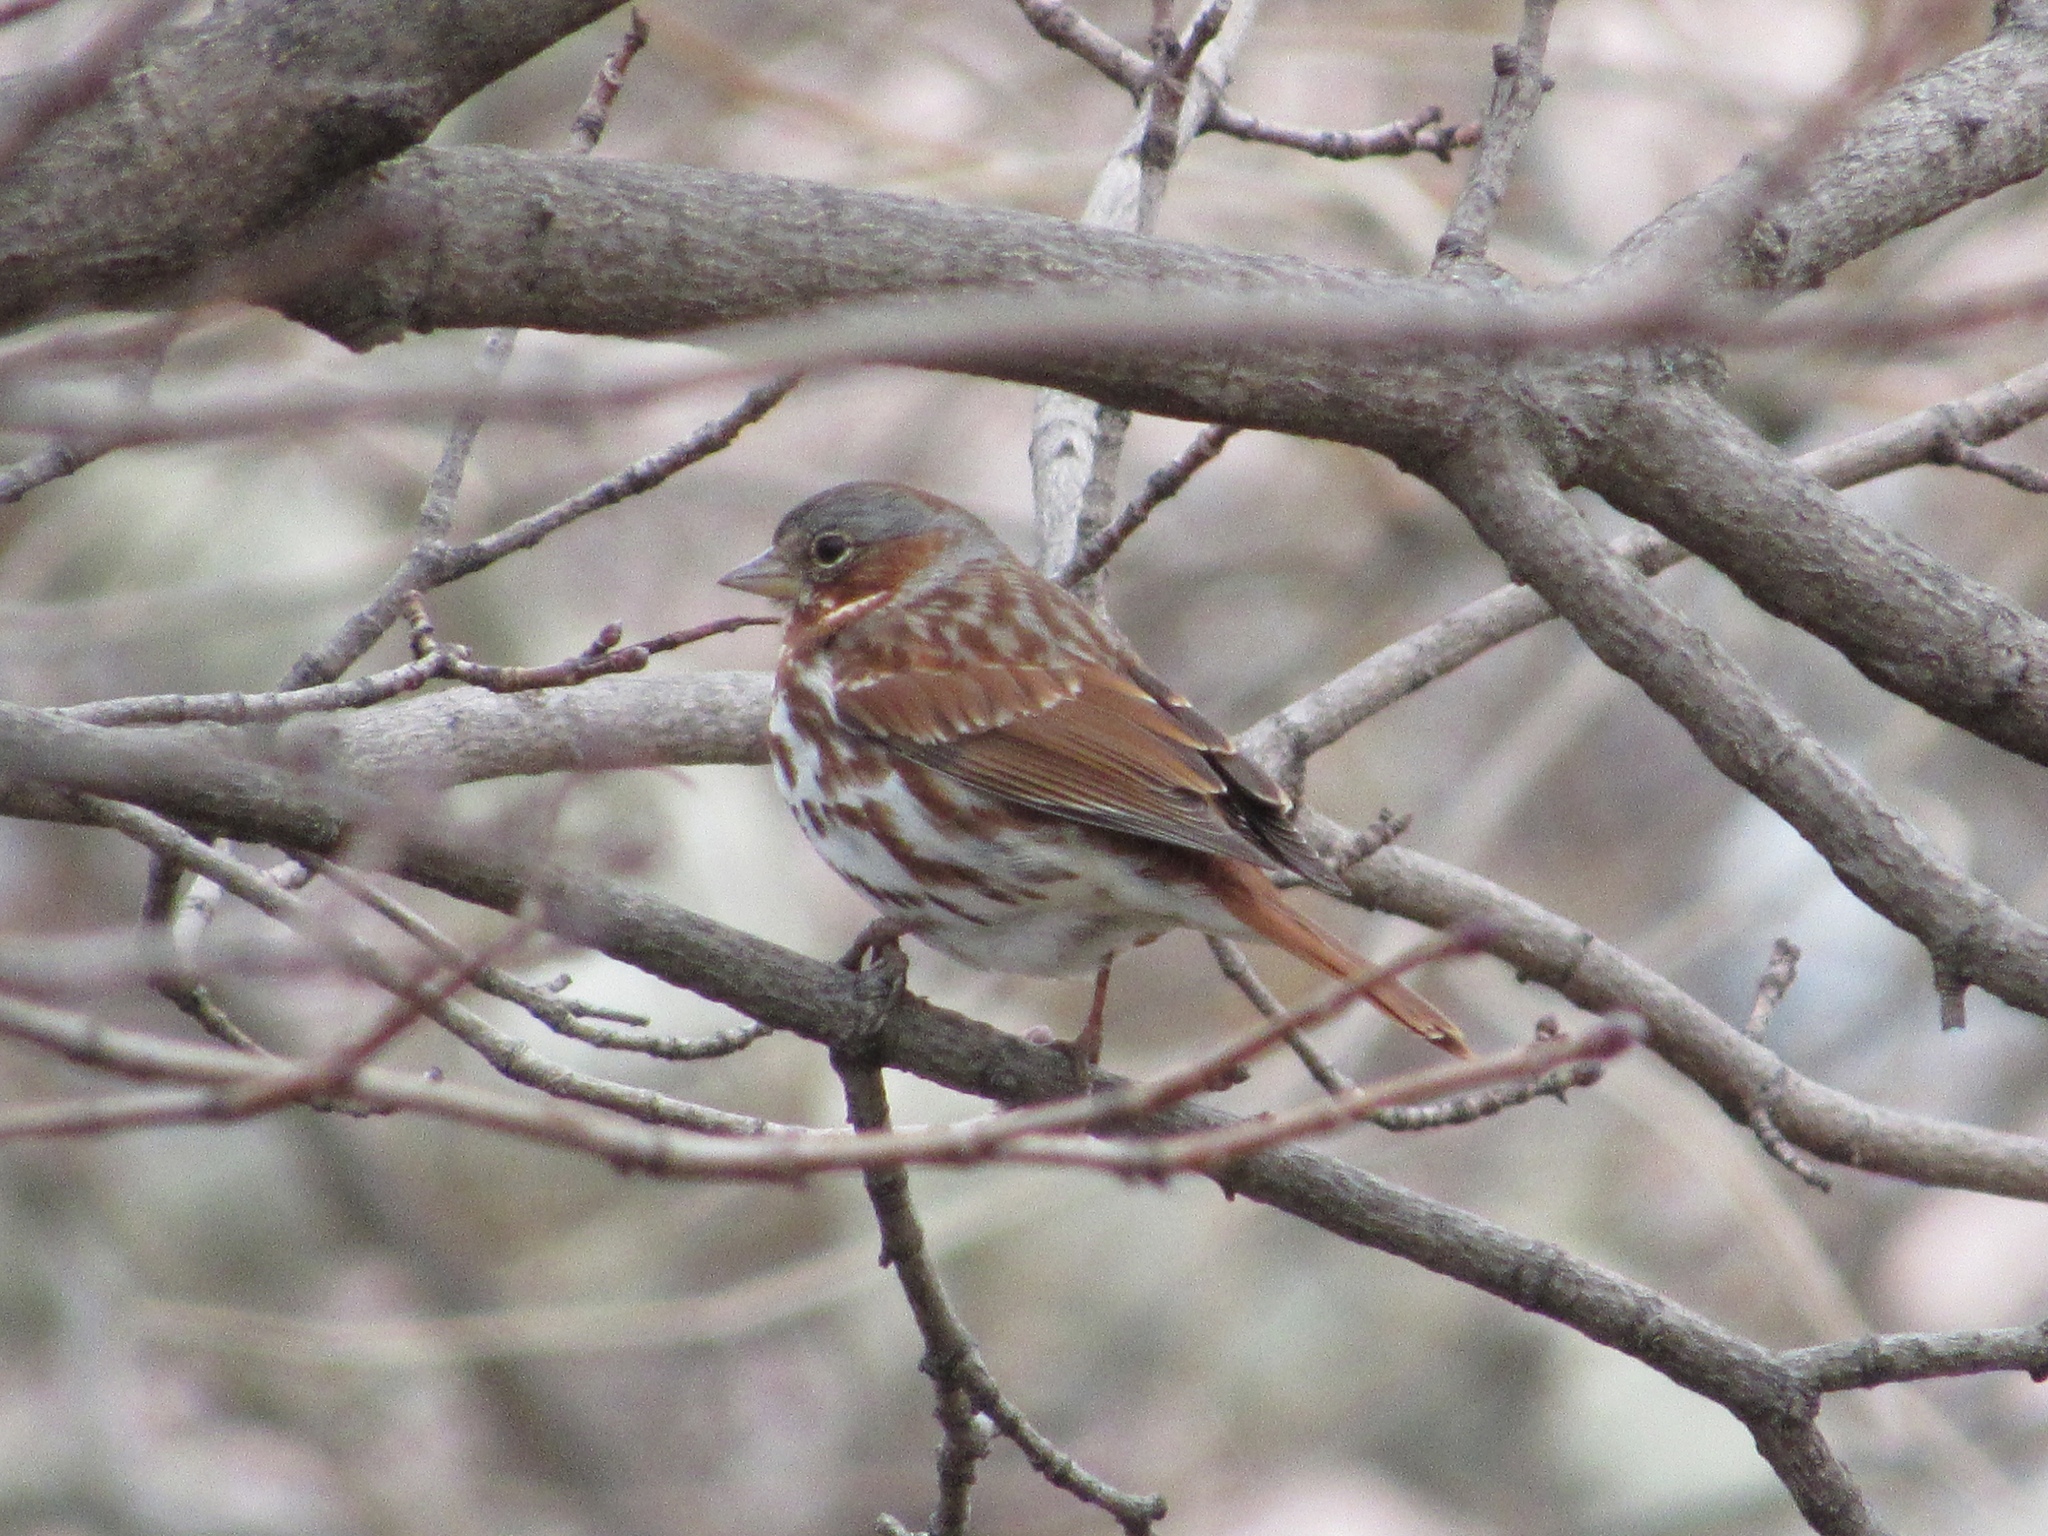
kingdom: Animalia
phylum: Chordata
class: Aves
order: Passeriformes
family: Passerellidae
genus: Passerella
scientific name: Passerella iliaca
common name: Fox sparrow
